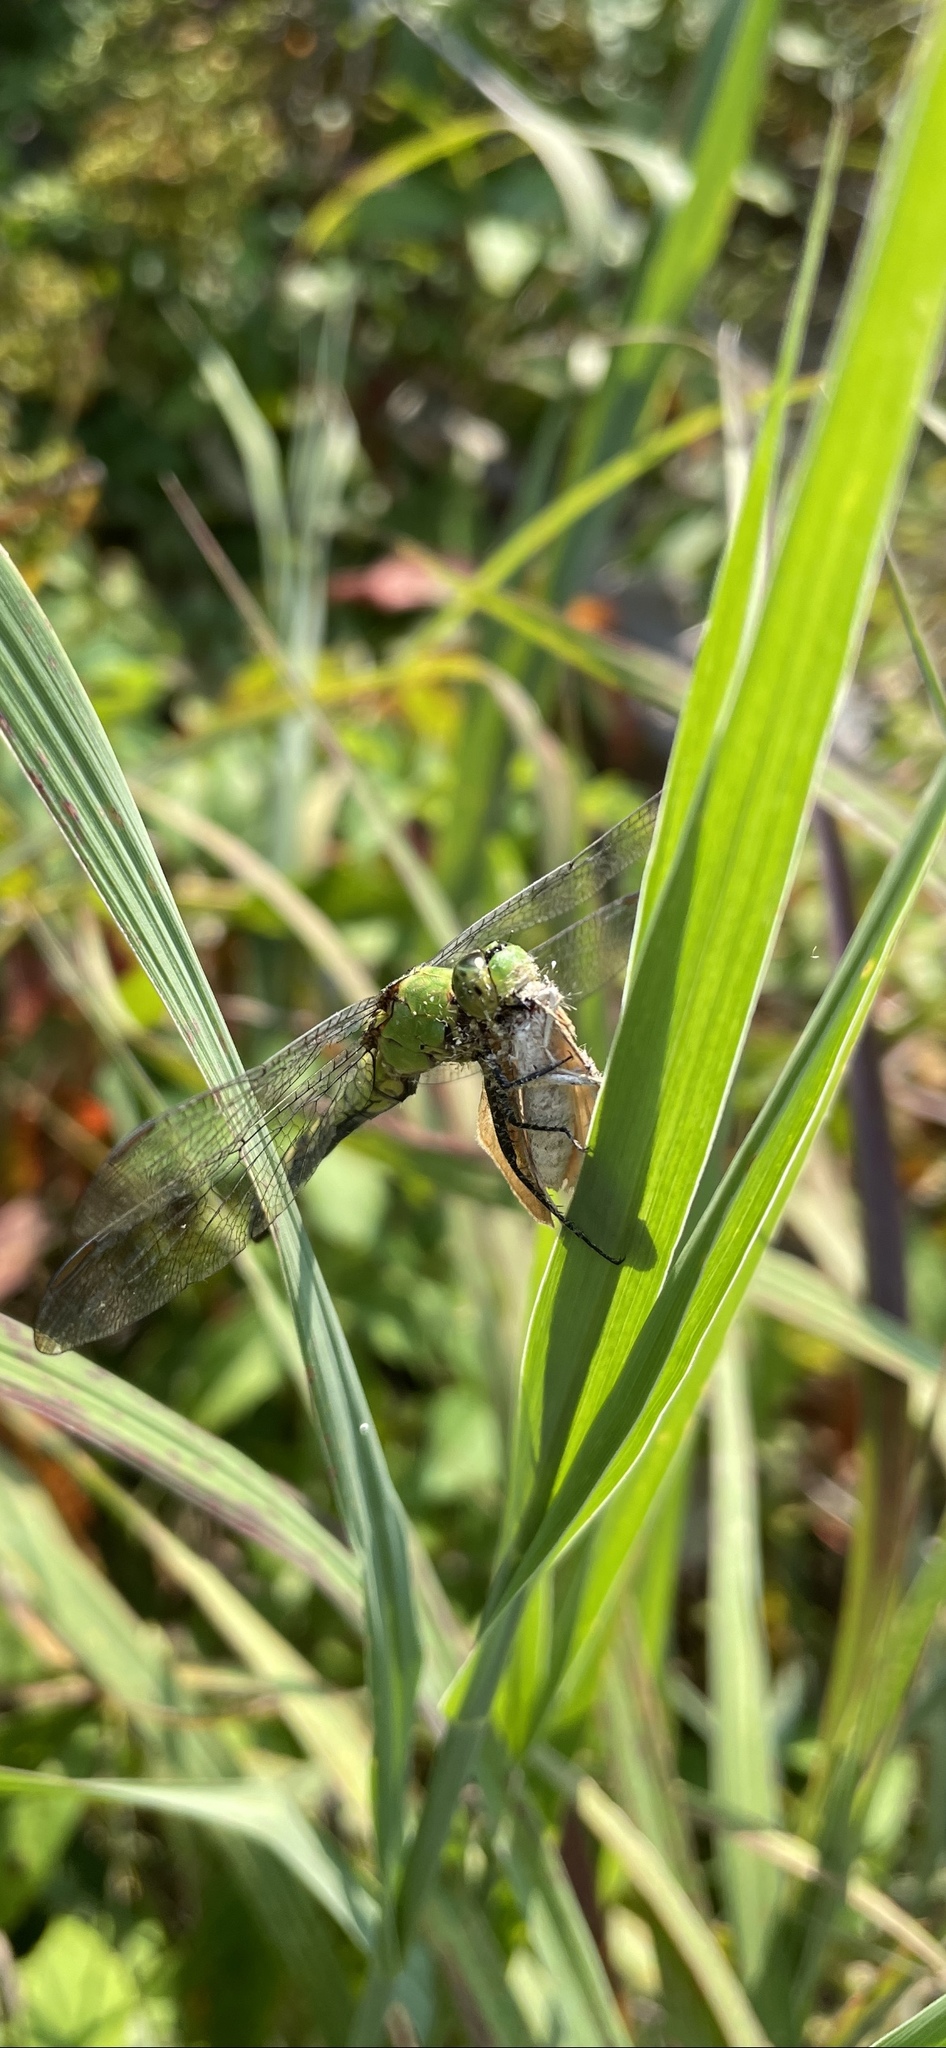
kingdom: Animalia
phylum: Arthropoda
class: Insecta
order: Odonata
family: Libellulidae
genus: Erythemis
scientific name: Erythemis simplicicollis
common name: Eastern pondhawk
